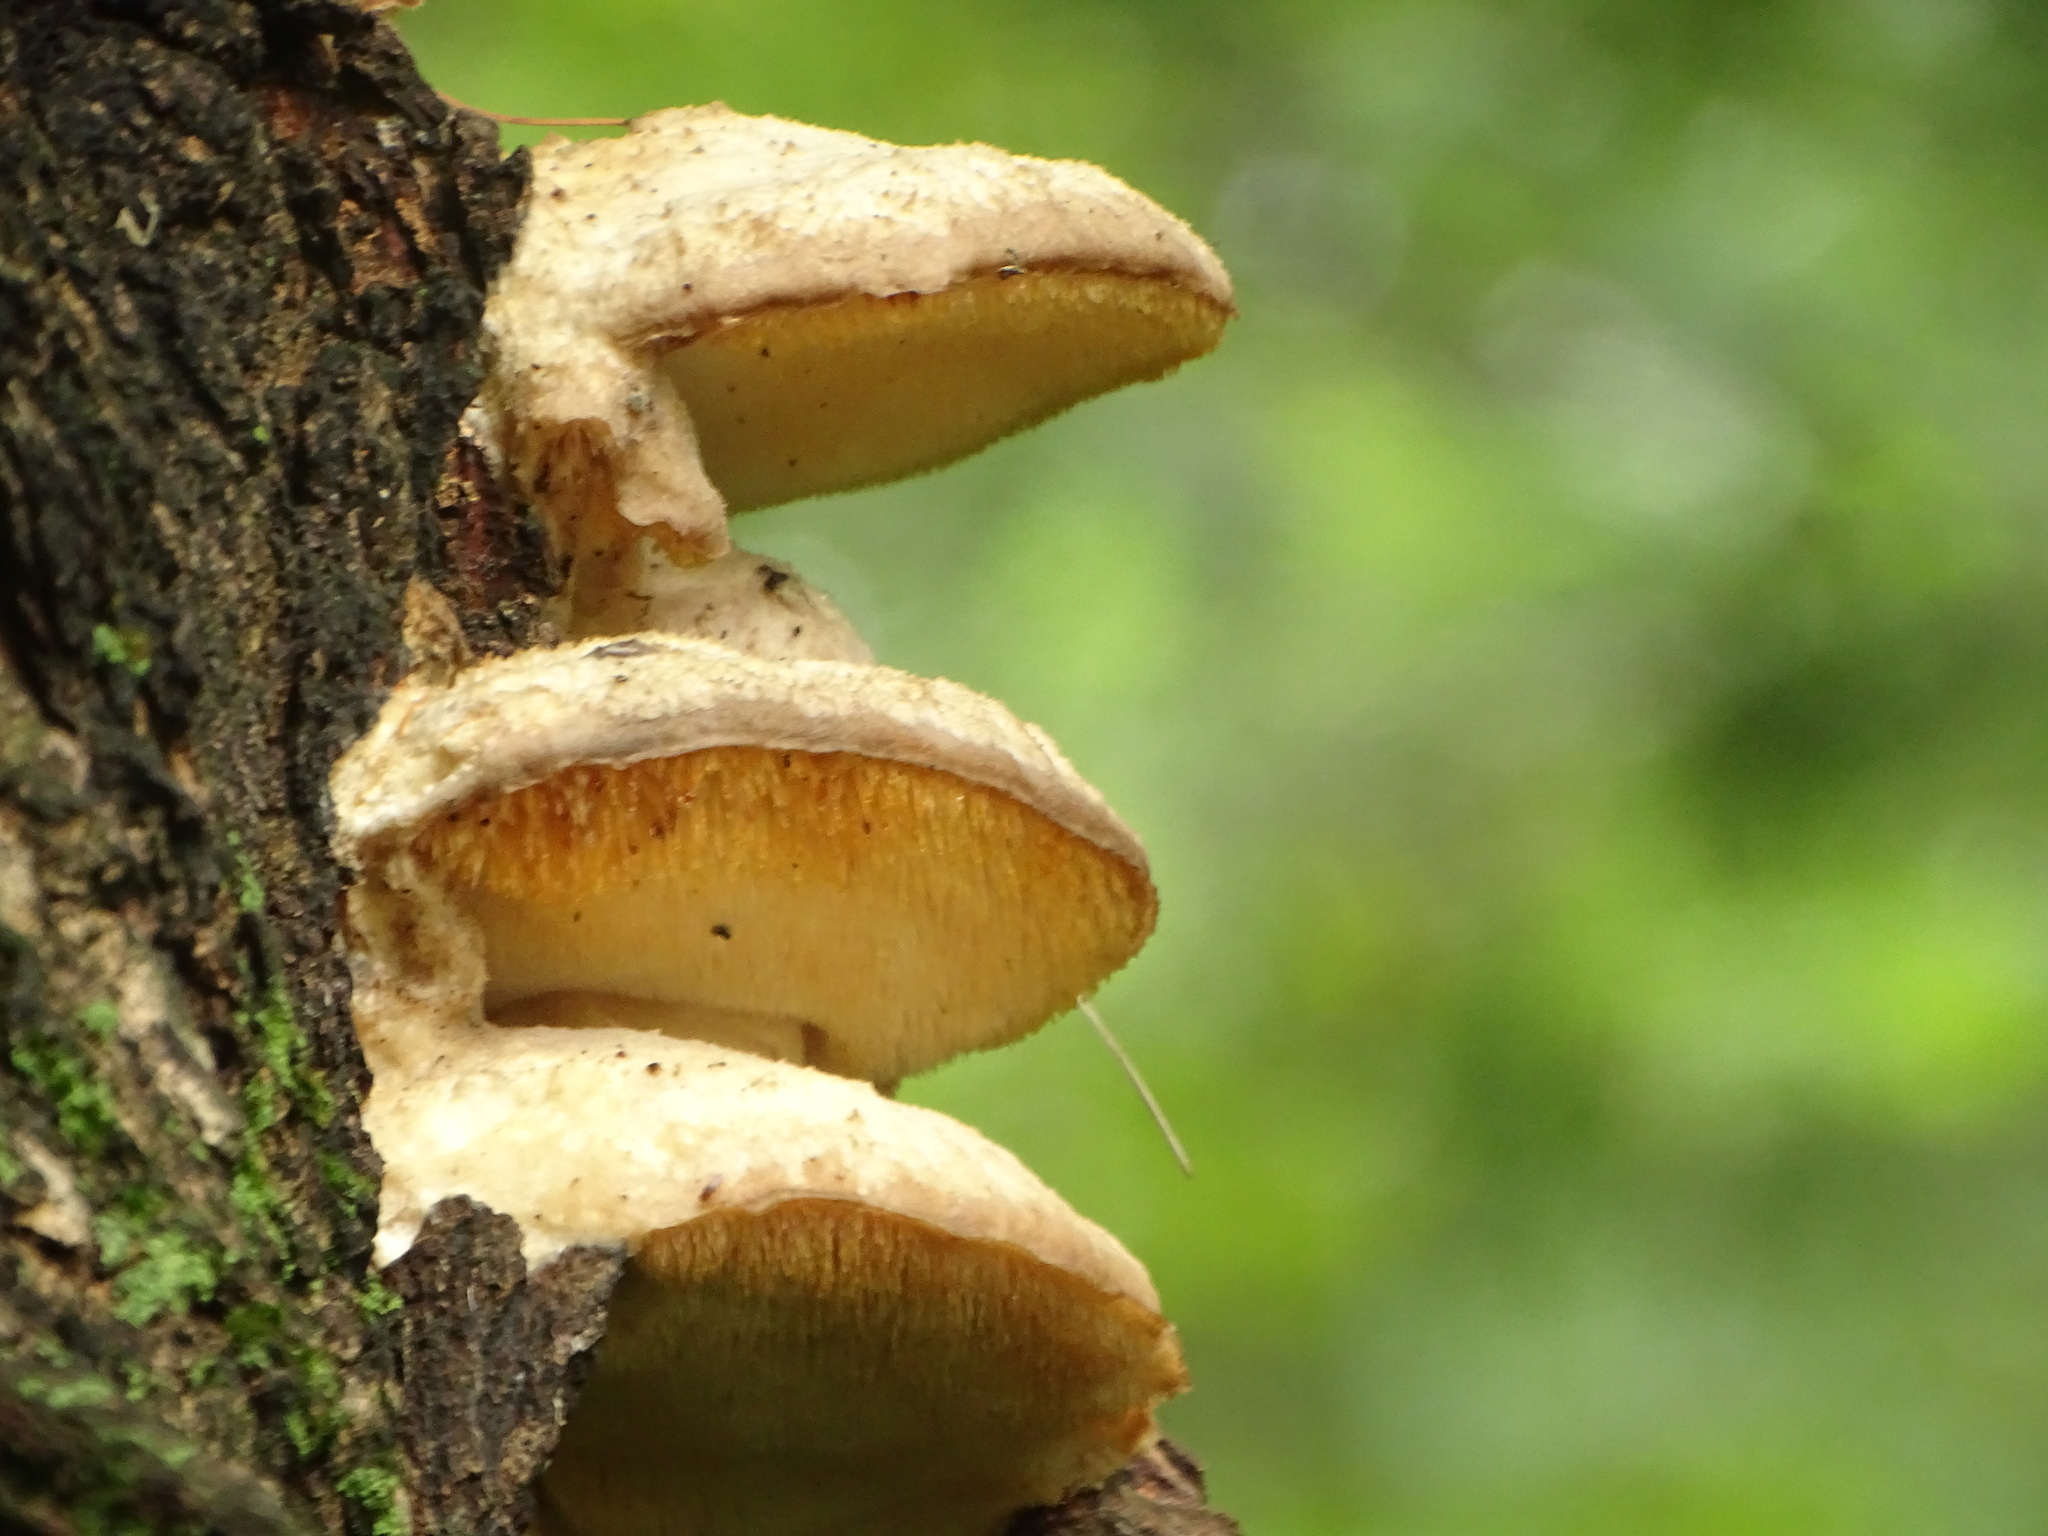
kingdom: Fungi
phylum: Basidiomycota
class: Agaricomycetes
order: Polyporales
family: Meruliaceae
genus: Climacodon
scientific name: Climacodon septentrionalis
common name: Northern tooth
